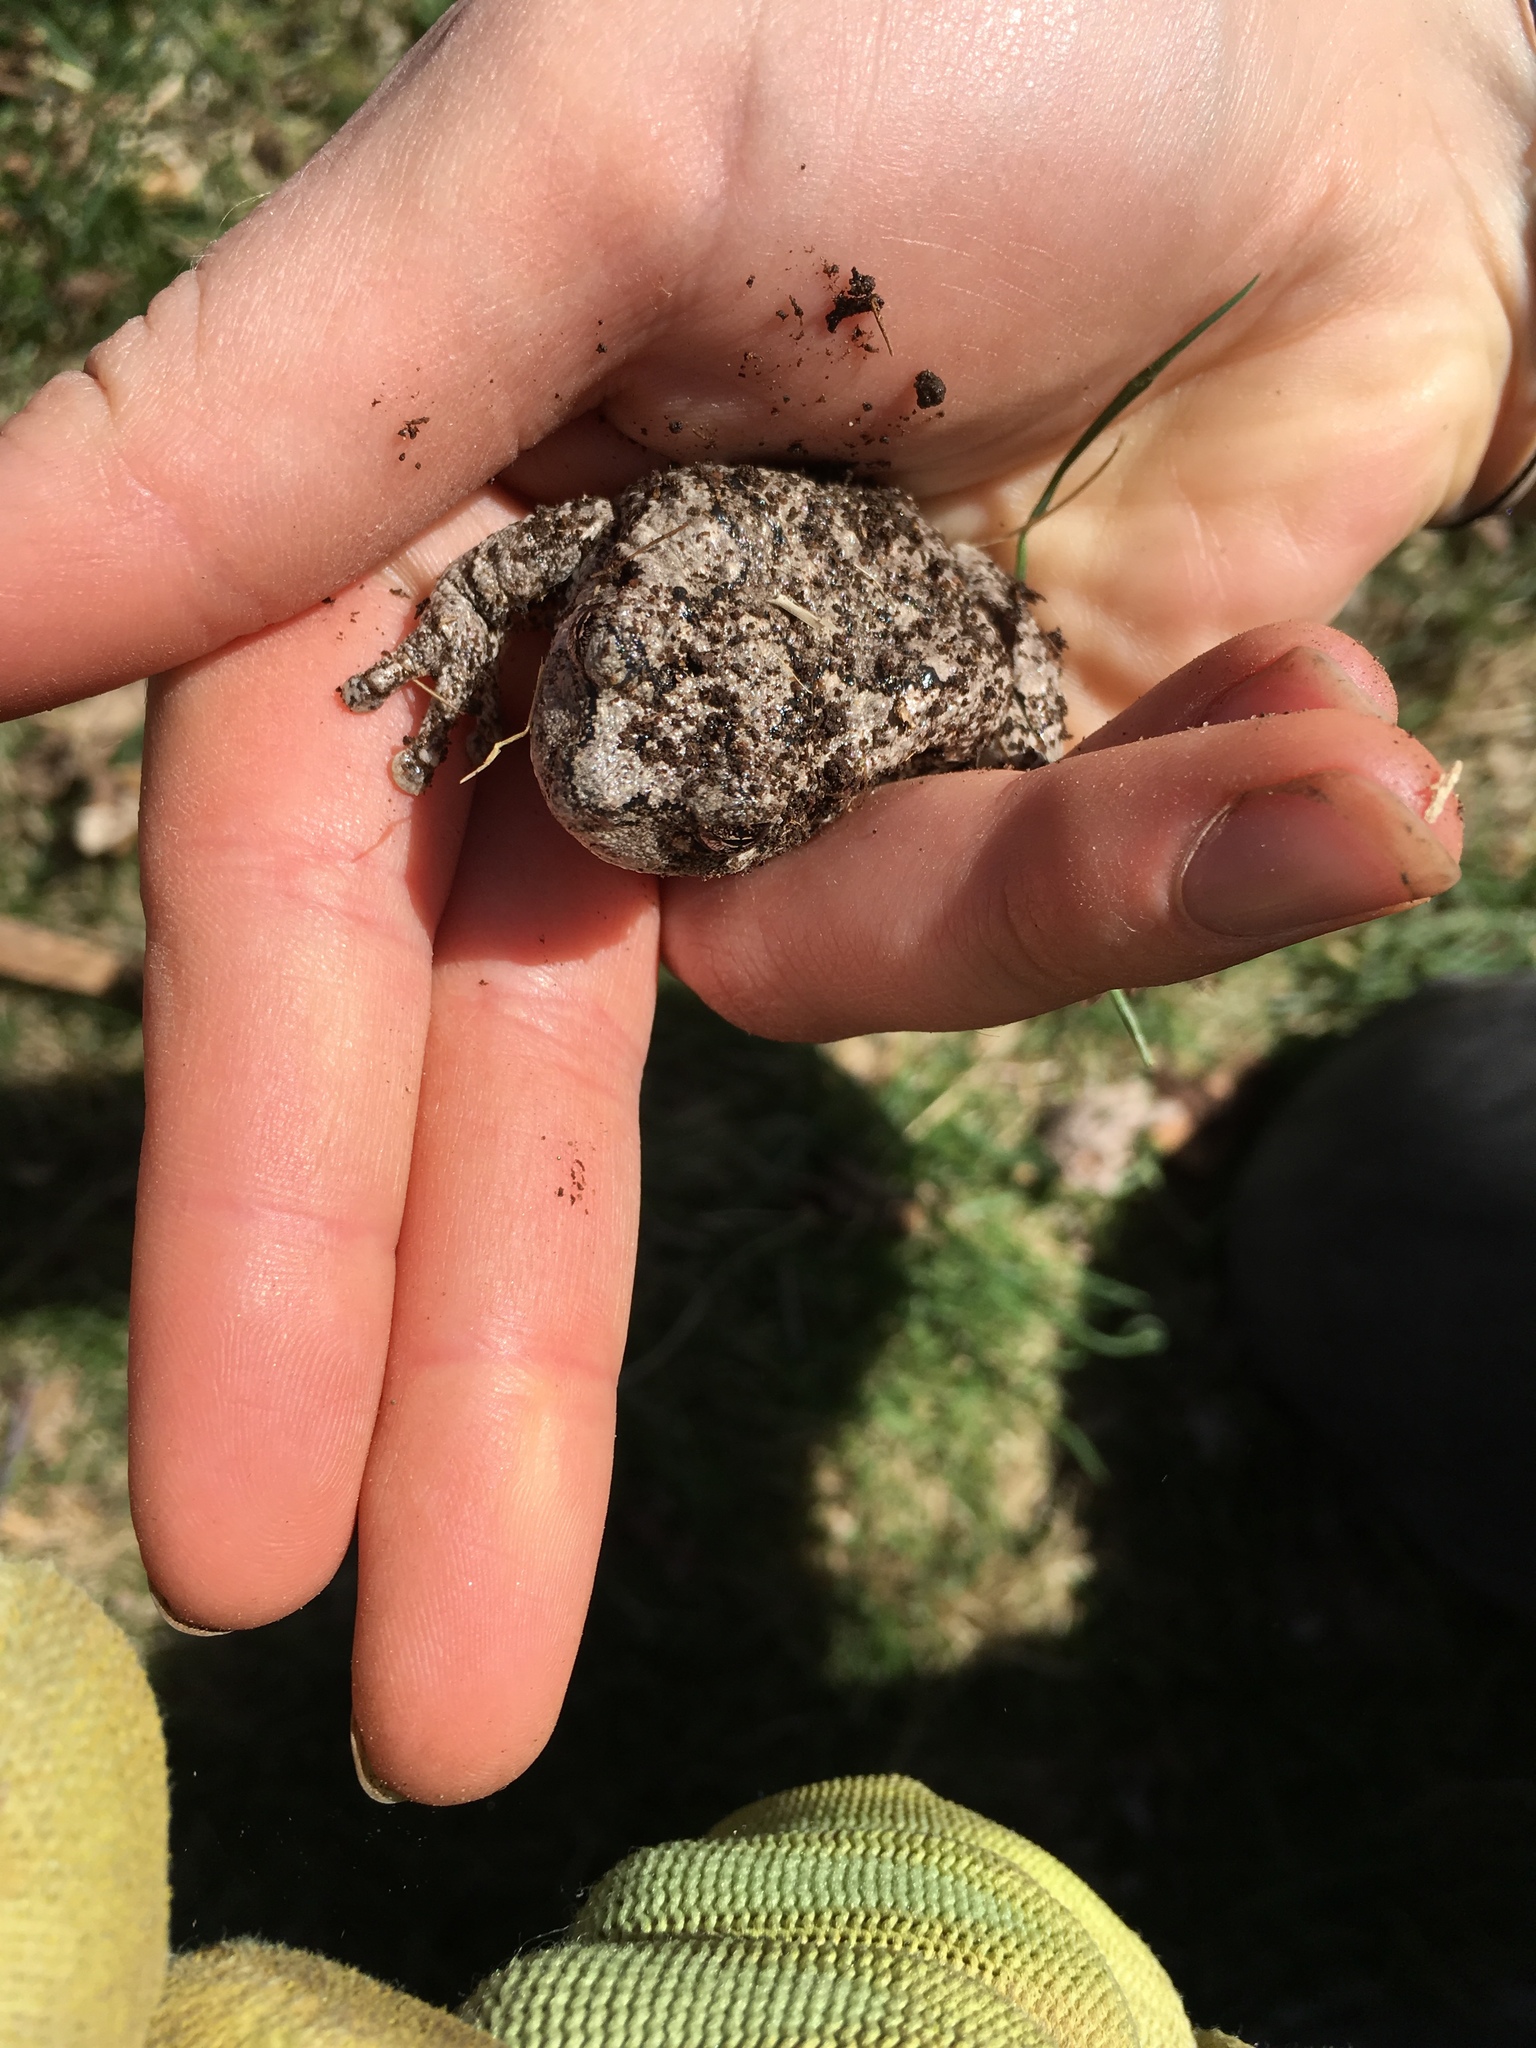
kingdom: Animalia
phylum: Chordata
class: Amphibia
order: Anura
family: Hylidae
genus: Dryophytes
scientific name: Dryophytes versicolor
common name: Gray treefrog
